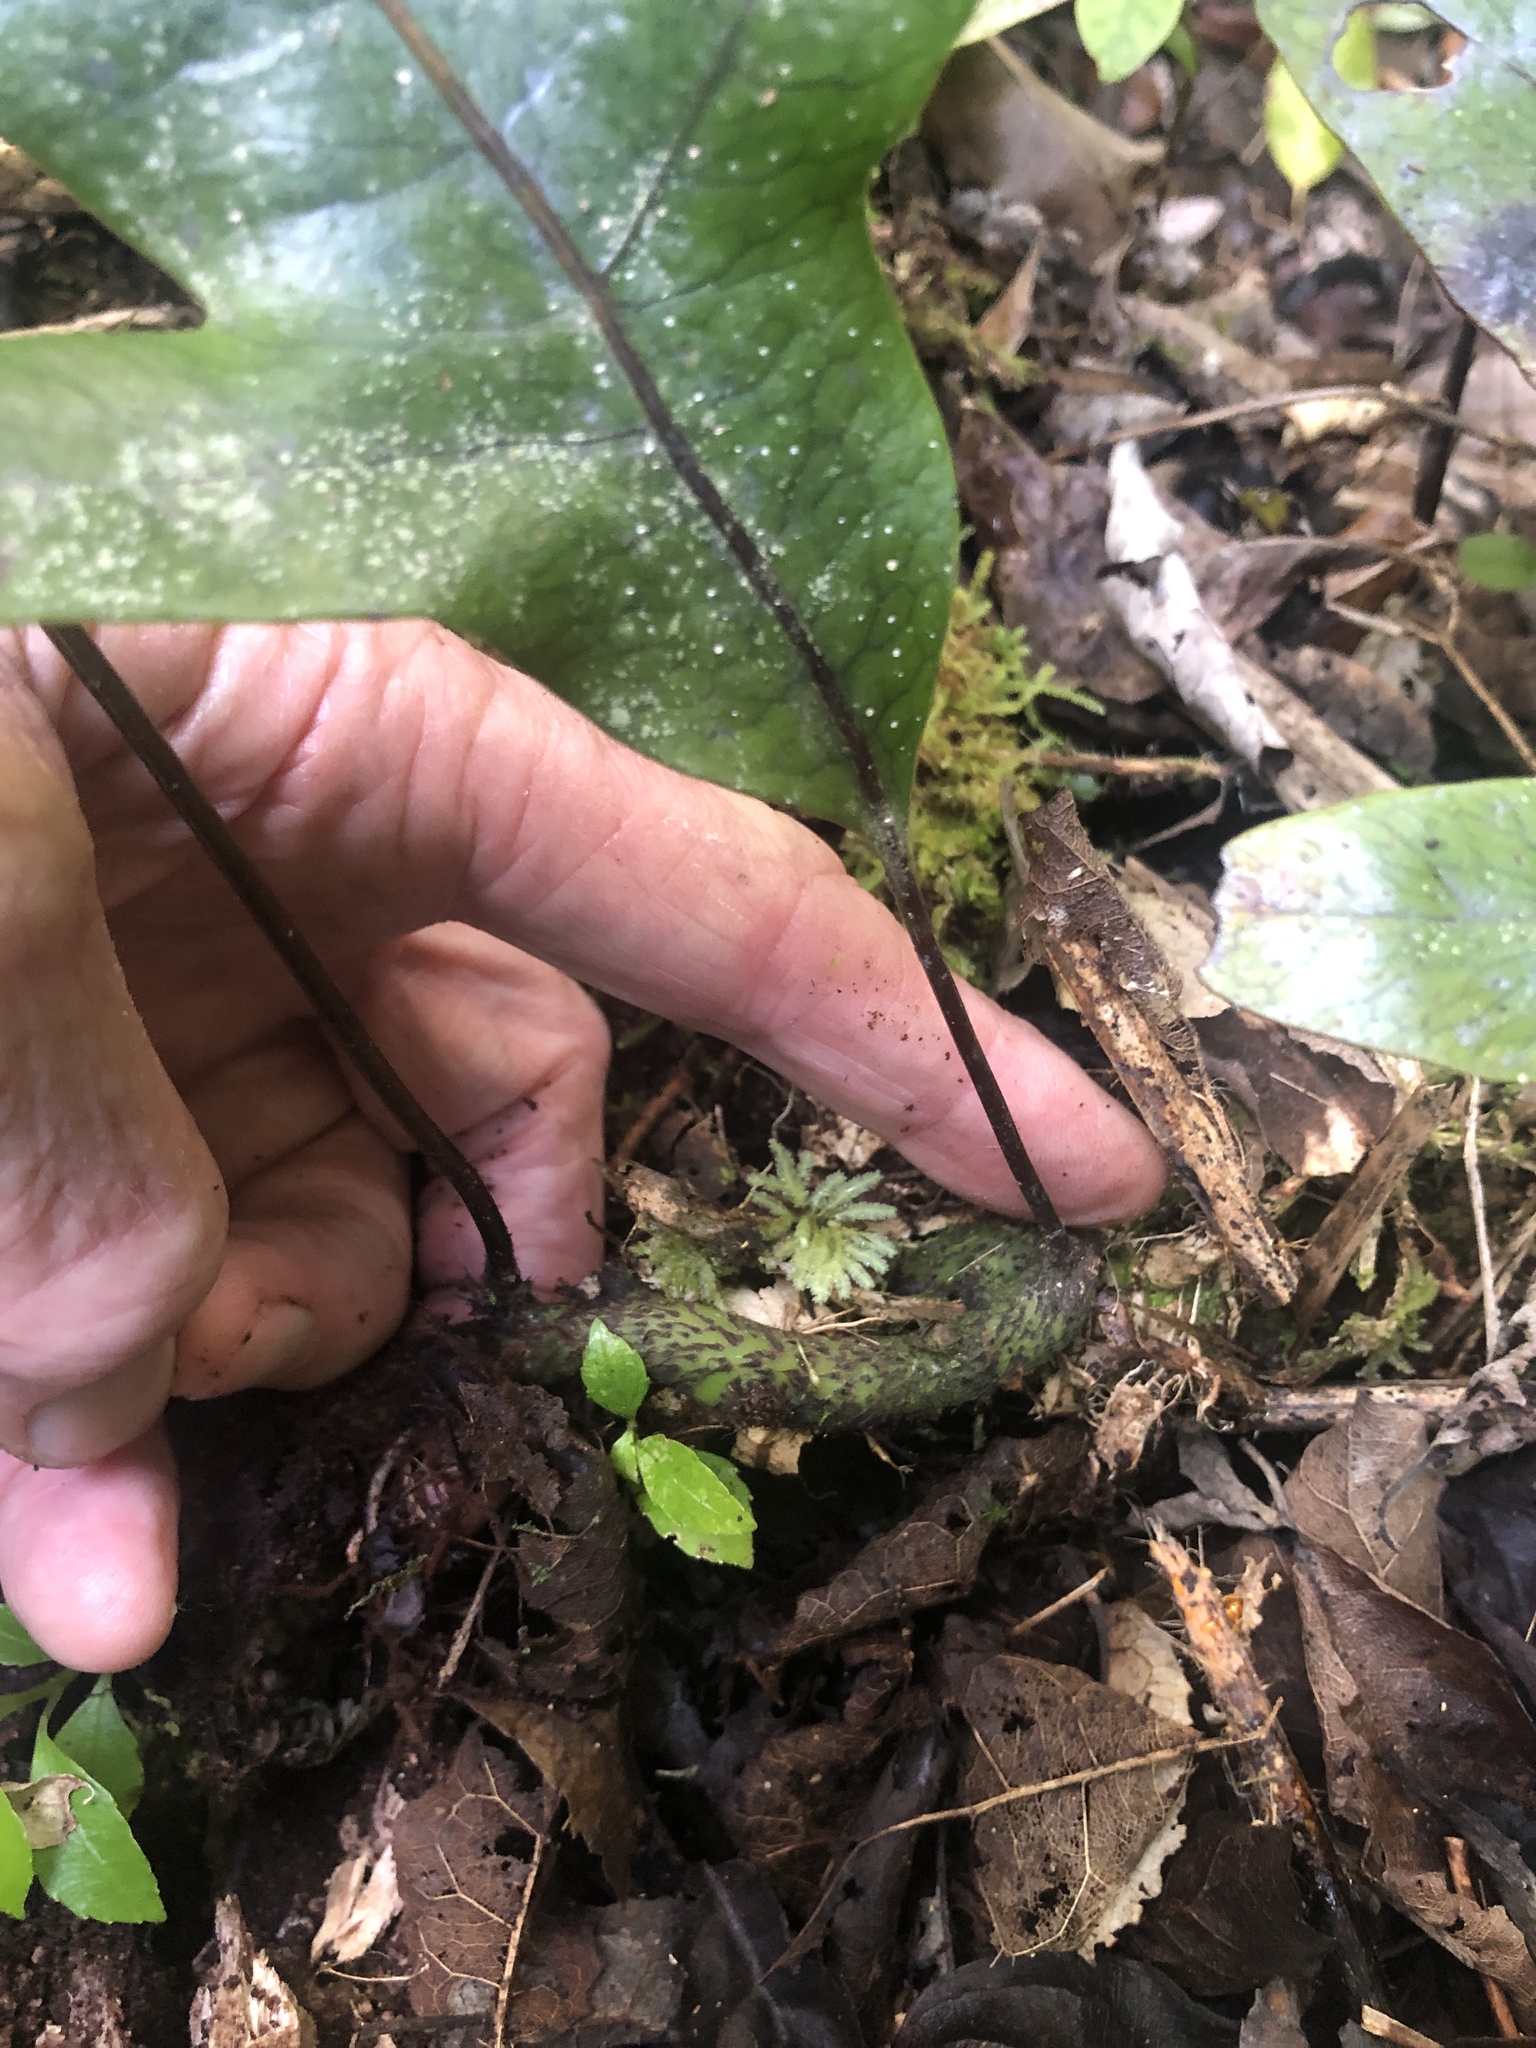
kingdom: Plantae
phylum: Tracheophyta
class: Polypodiopsida
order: Polypodiales
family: Polypodiaceae
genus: Lecanopteris
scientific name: Lecanopteris pustulata
